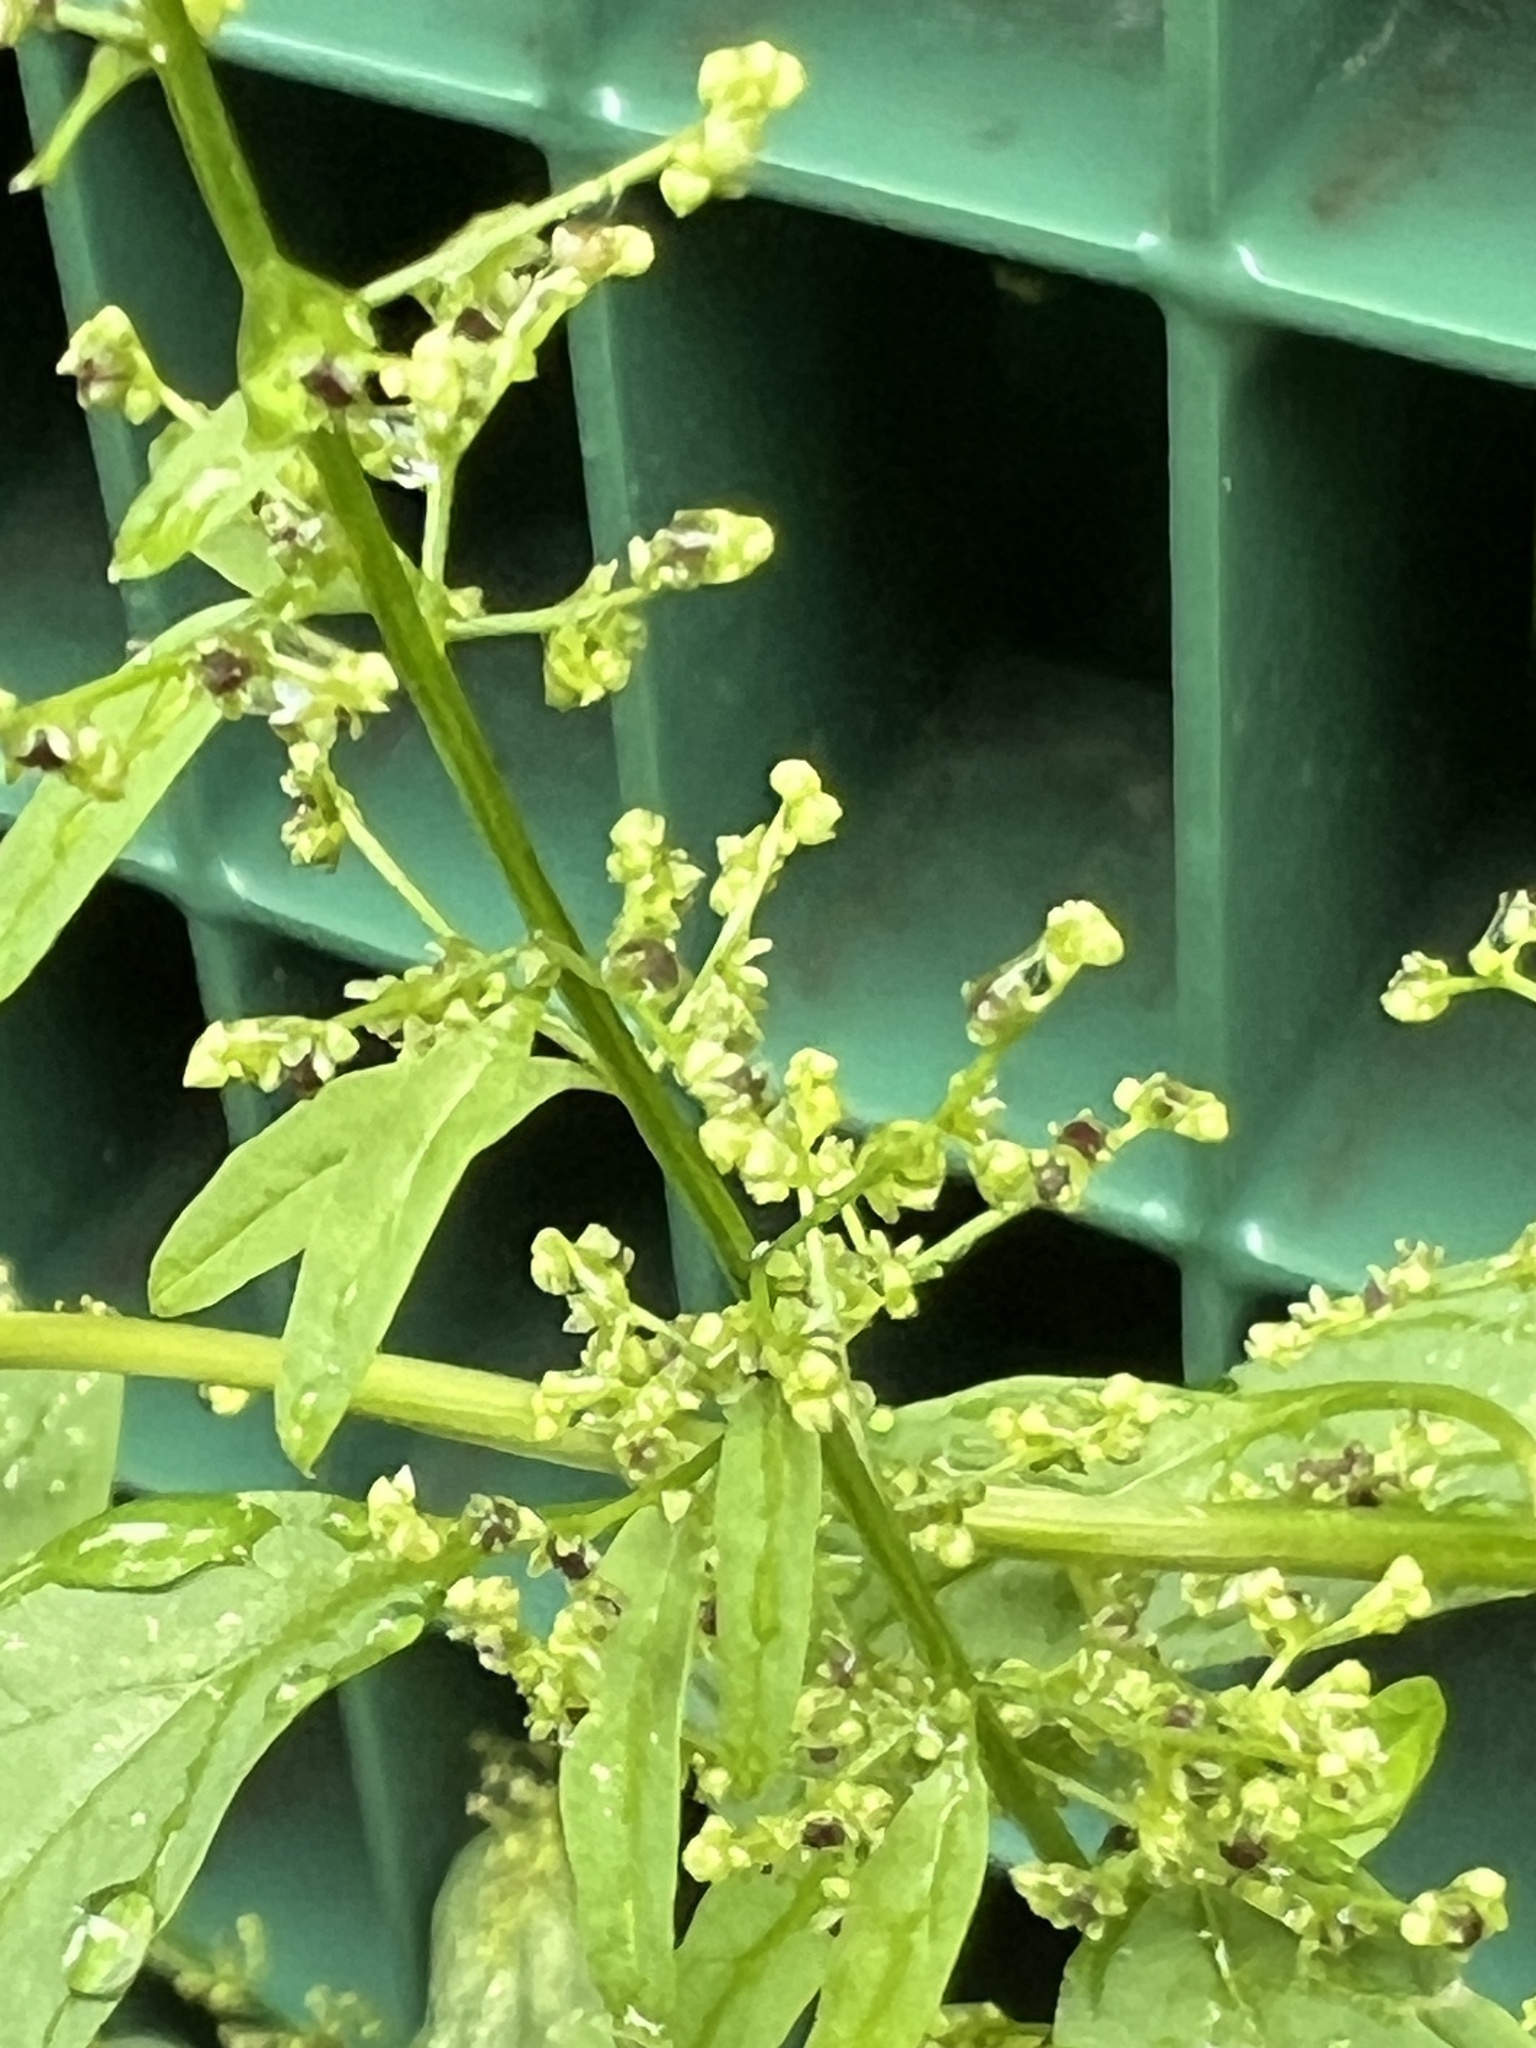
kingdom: Plantae
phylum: Tracheophyta
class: Magnoliopsida
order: Caryophyllales
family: Amaranthaceae
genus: Lipandra
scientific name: Lipandra polysperma
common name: Many-seed goosefoot
